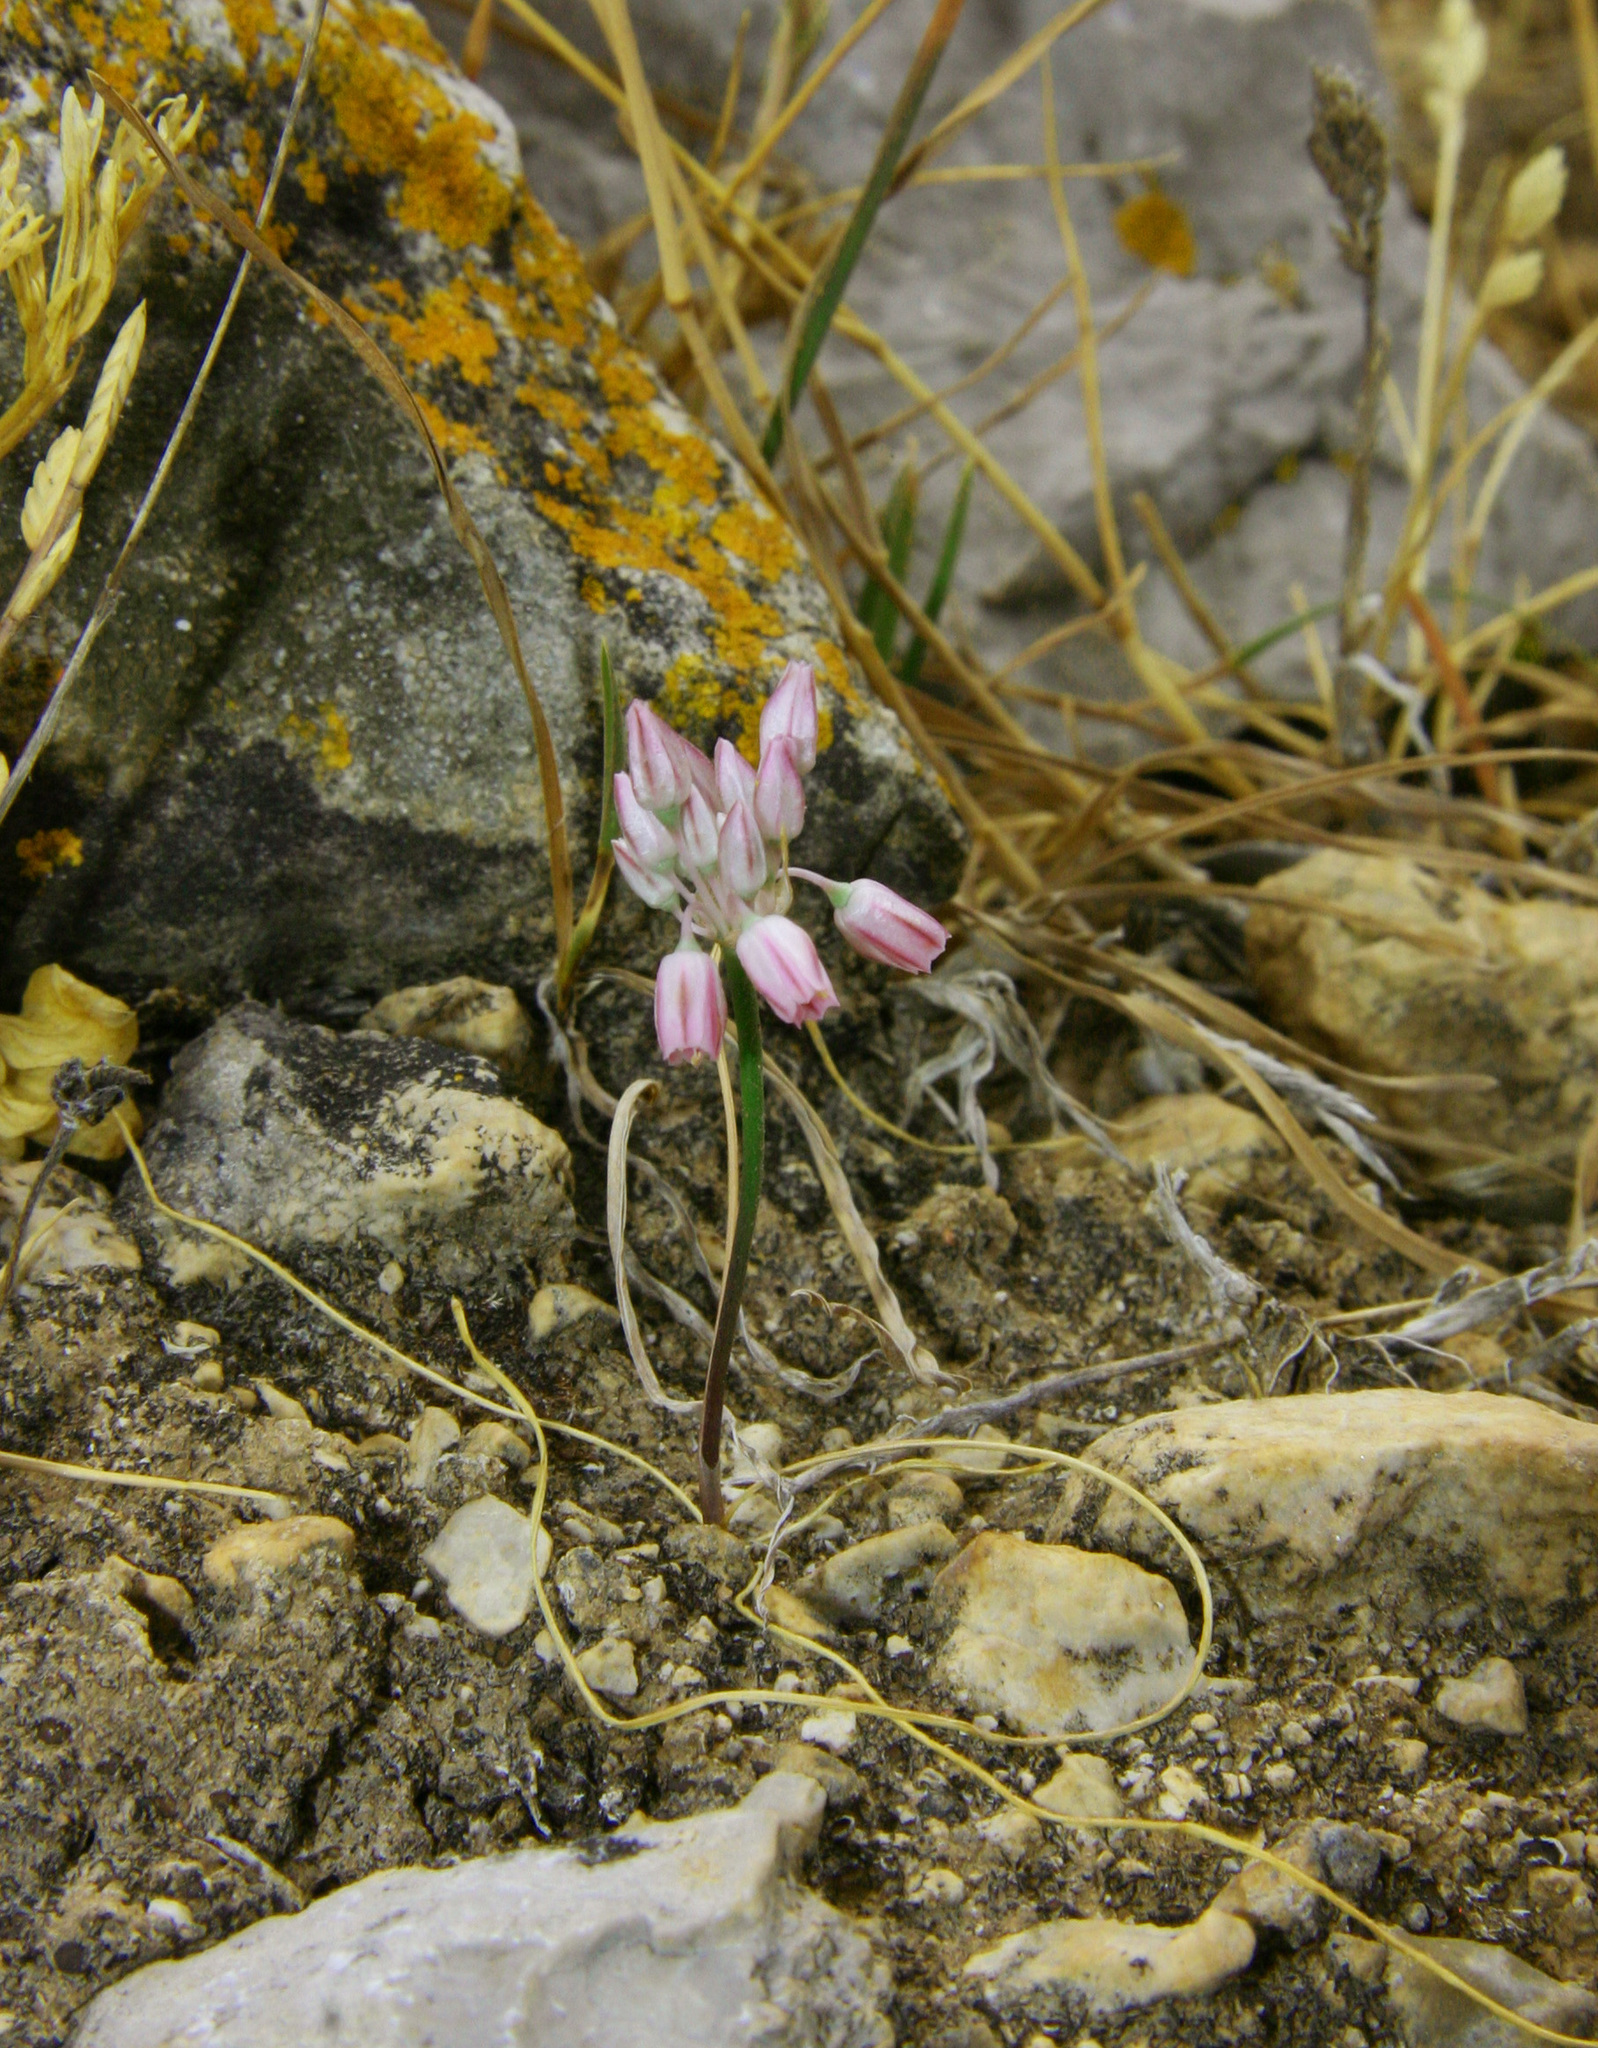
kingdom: Plantae
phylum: Tracheophyta
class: Liliopsida
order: Asparagales
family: Amaryllidaceae
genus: Allium
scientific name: Allium obtusiflorum
